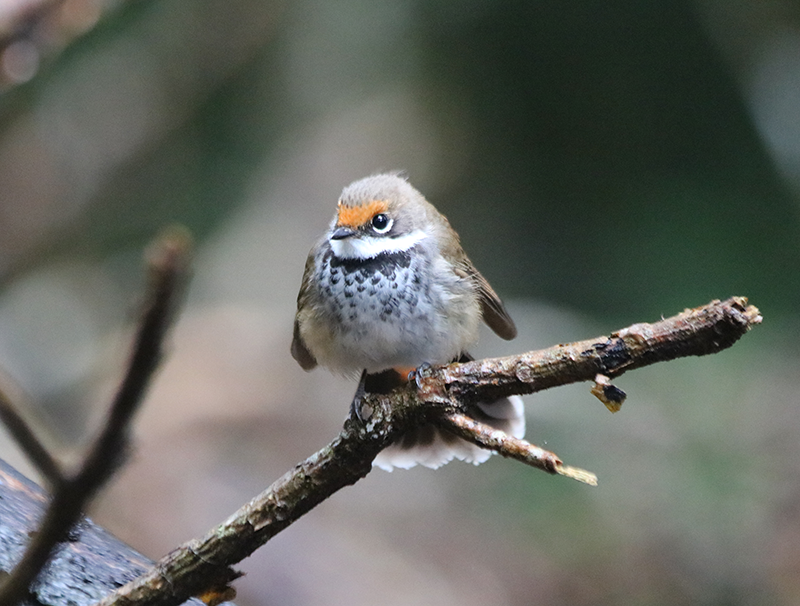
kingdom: Animalia
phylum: Chordata
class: Aves
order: Passeriformes
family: Rhipiduridae
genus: Rhipidura
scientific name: Rhipidura rufifrons
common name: Rufous fantail
